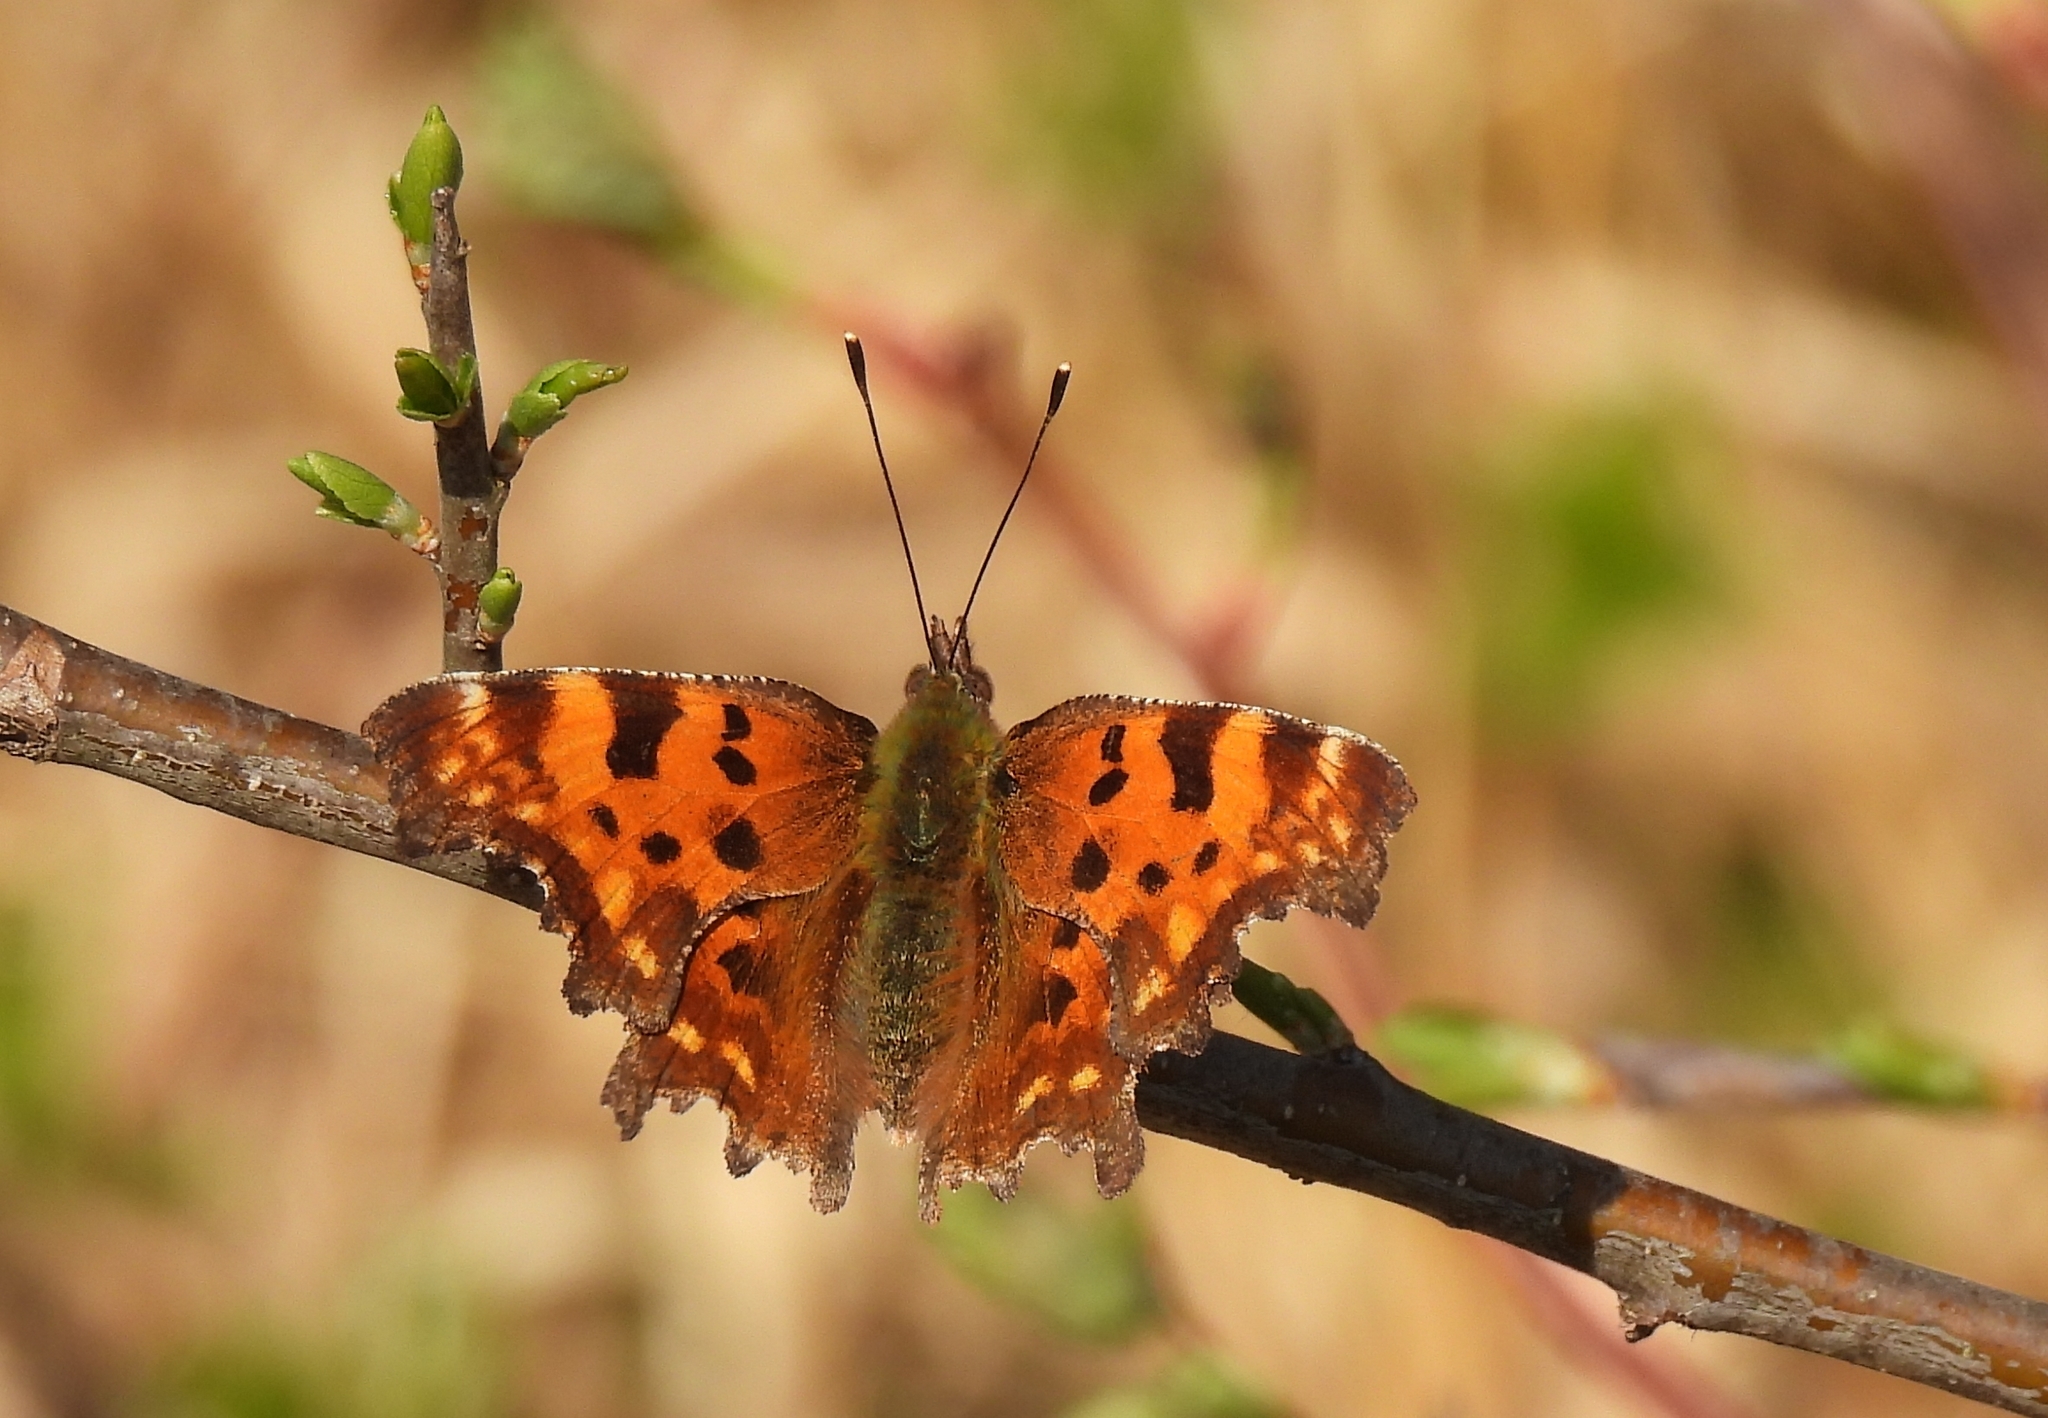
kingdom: Animalia
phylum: Arthropoda
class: Insecta
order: Lepidoptera
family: Nymphalidae
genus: Polygonia
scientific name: Polygonia c-album
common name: Comma
